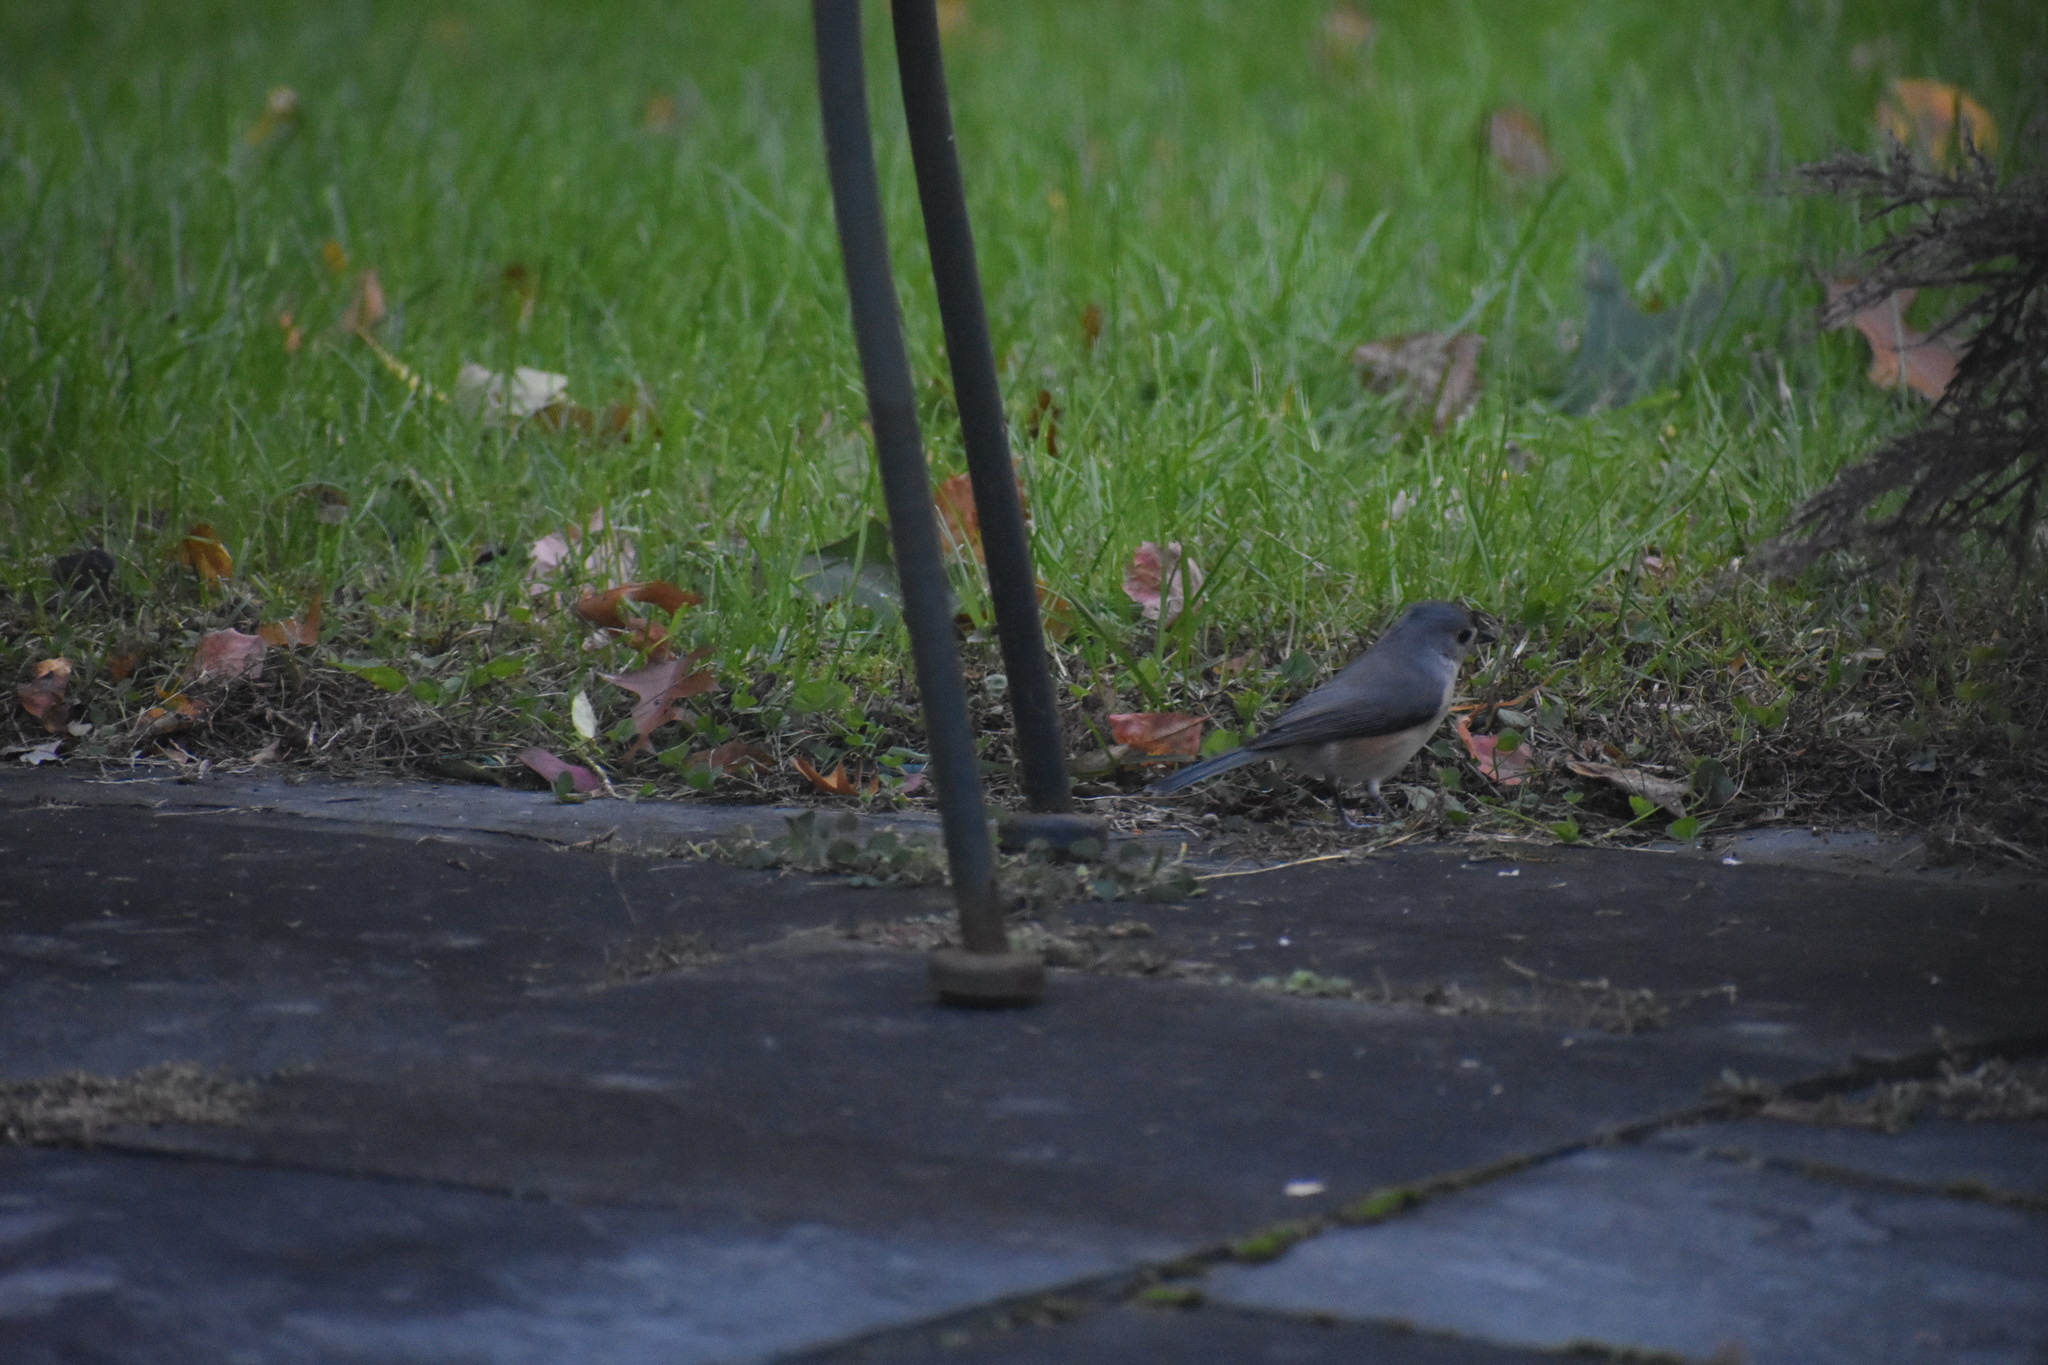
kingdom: Animalia
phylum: Chordata
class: Aves
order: Passeriformes
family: Paridae
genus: Baeolophus
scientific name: Baeolophus bicolor
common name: Tufted titmouse
